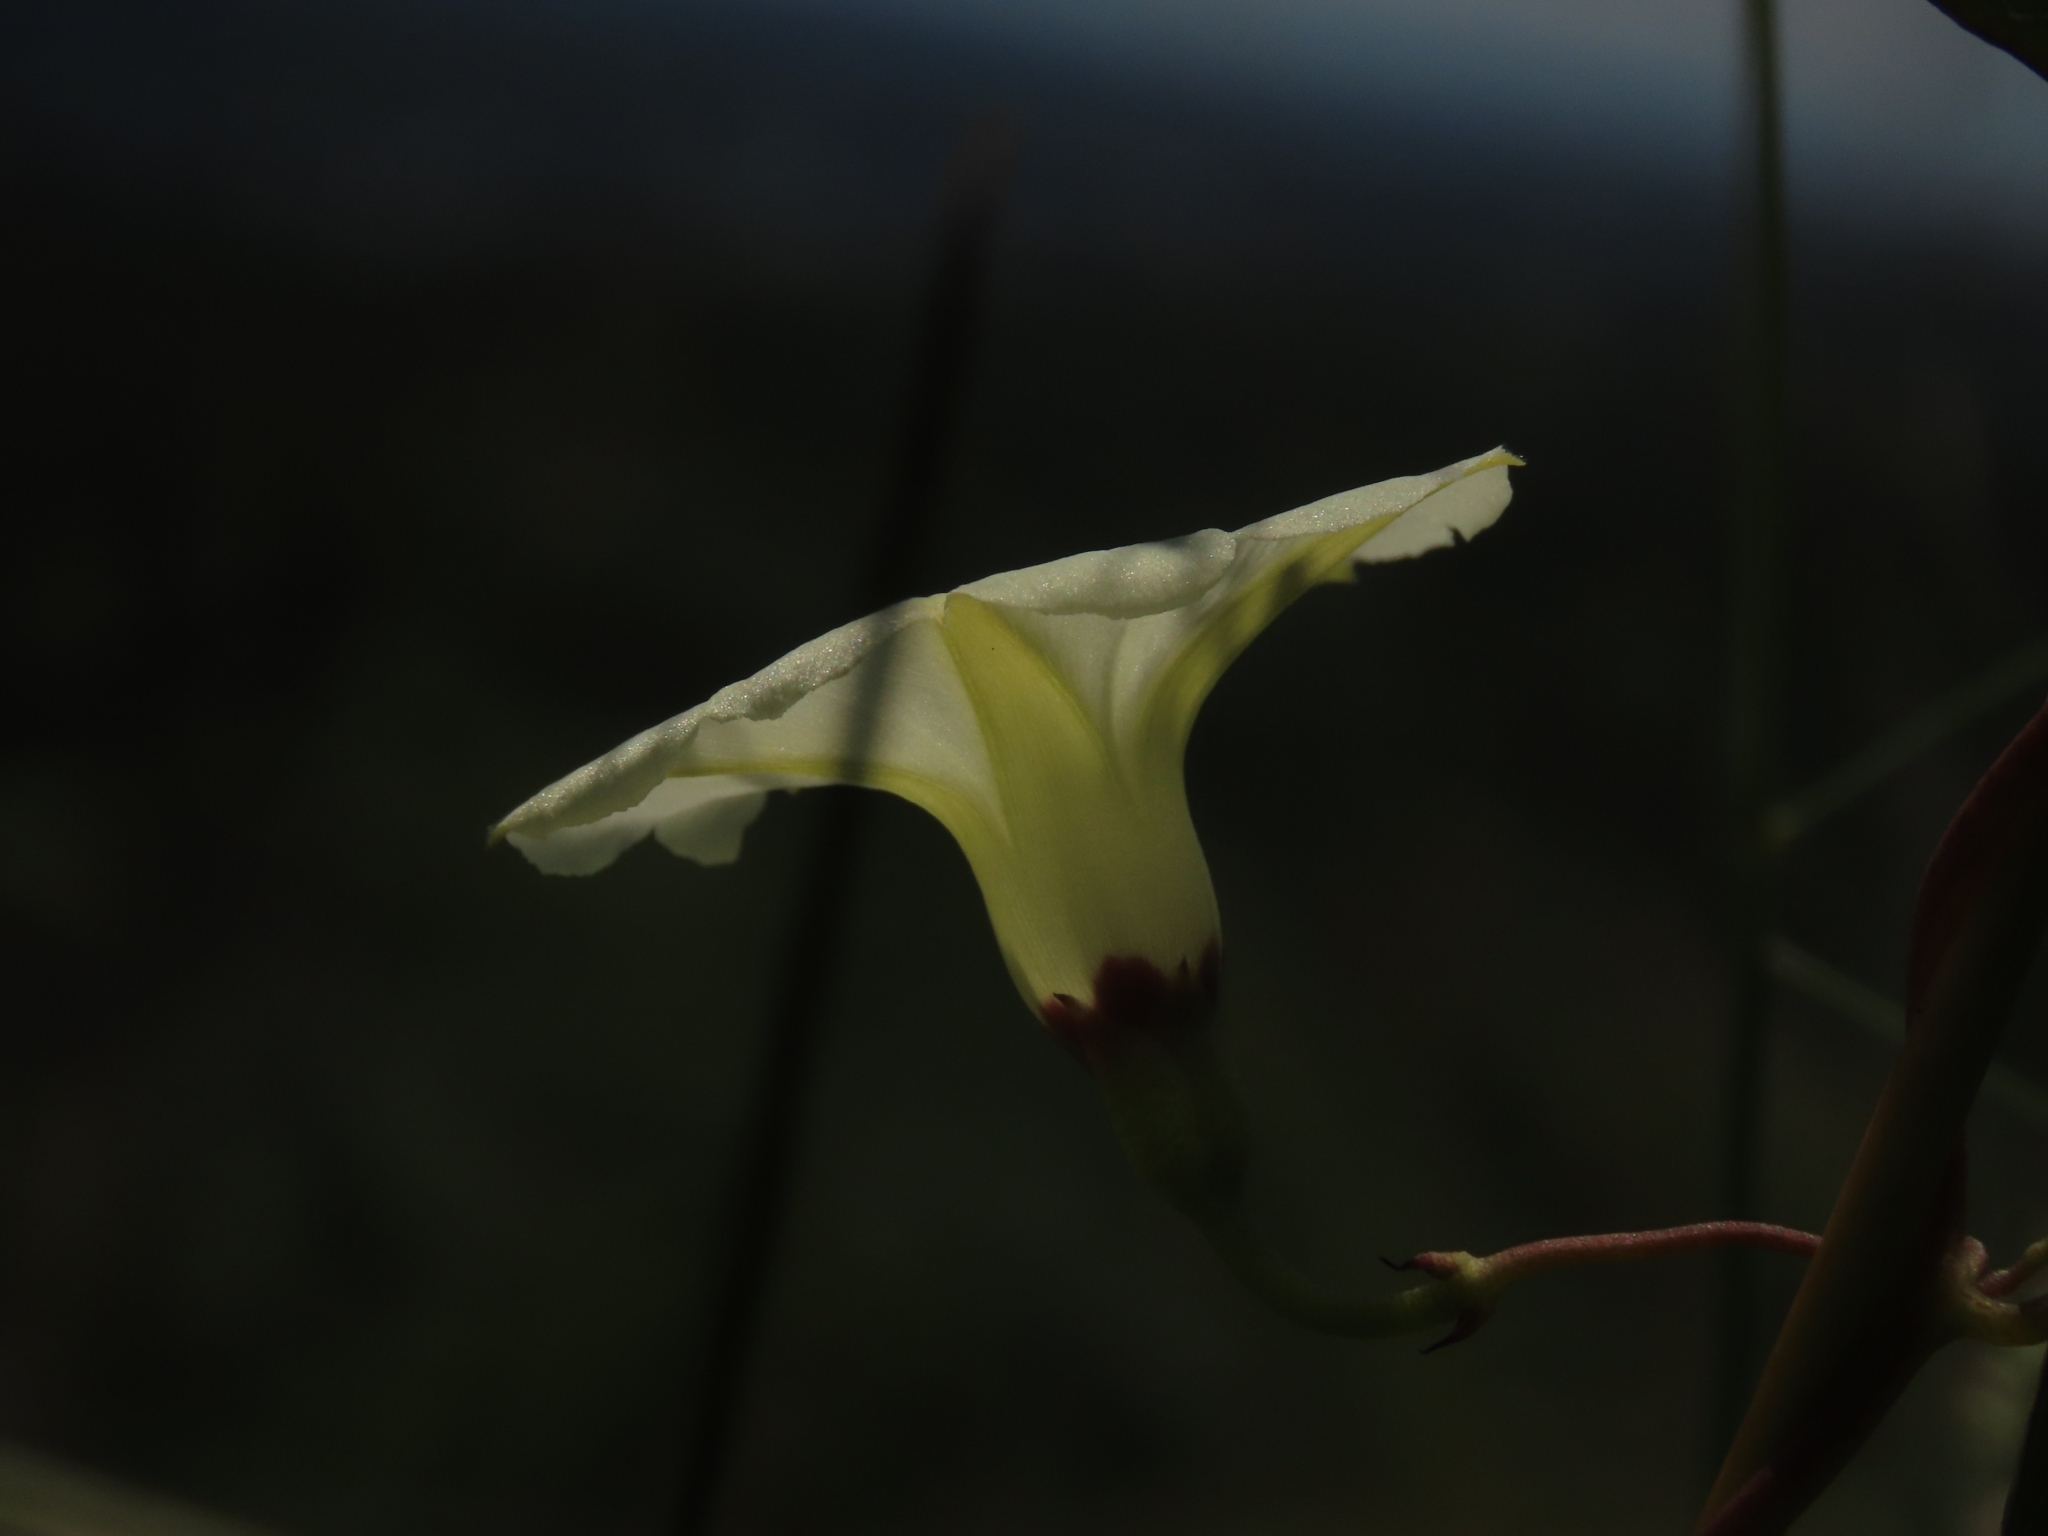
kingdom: Plantae
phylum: Tracheophyta
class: Magnoliopsida
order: Solanales
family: Convolvulaceae
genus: Ipomoea
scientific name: Ipomoea obscura
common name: Obscure morning-glory
